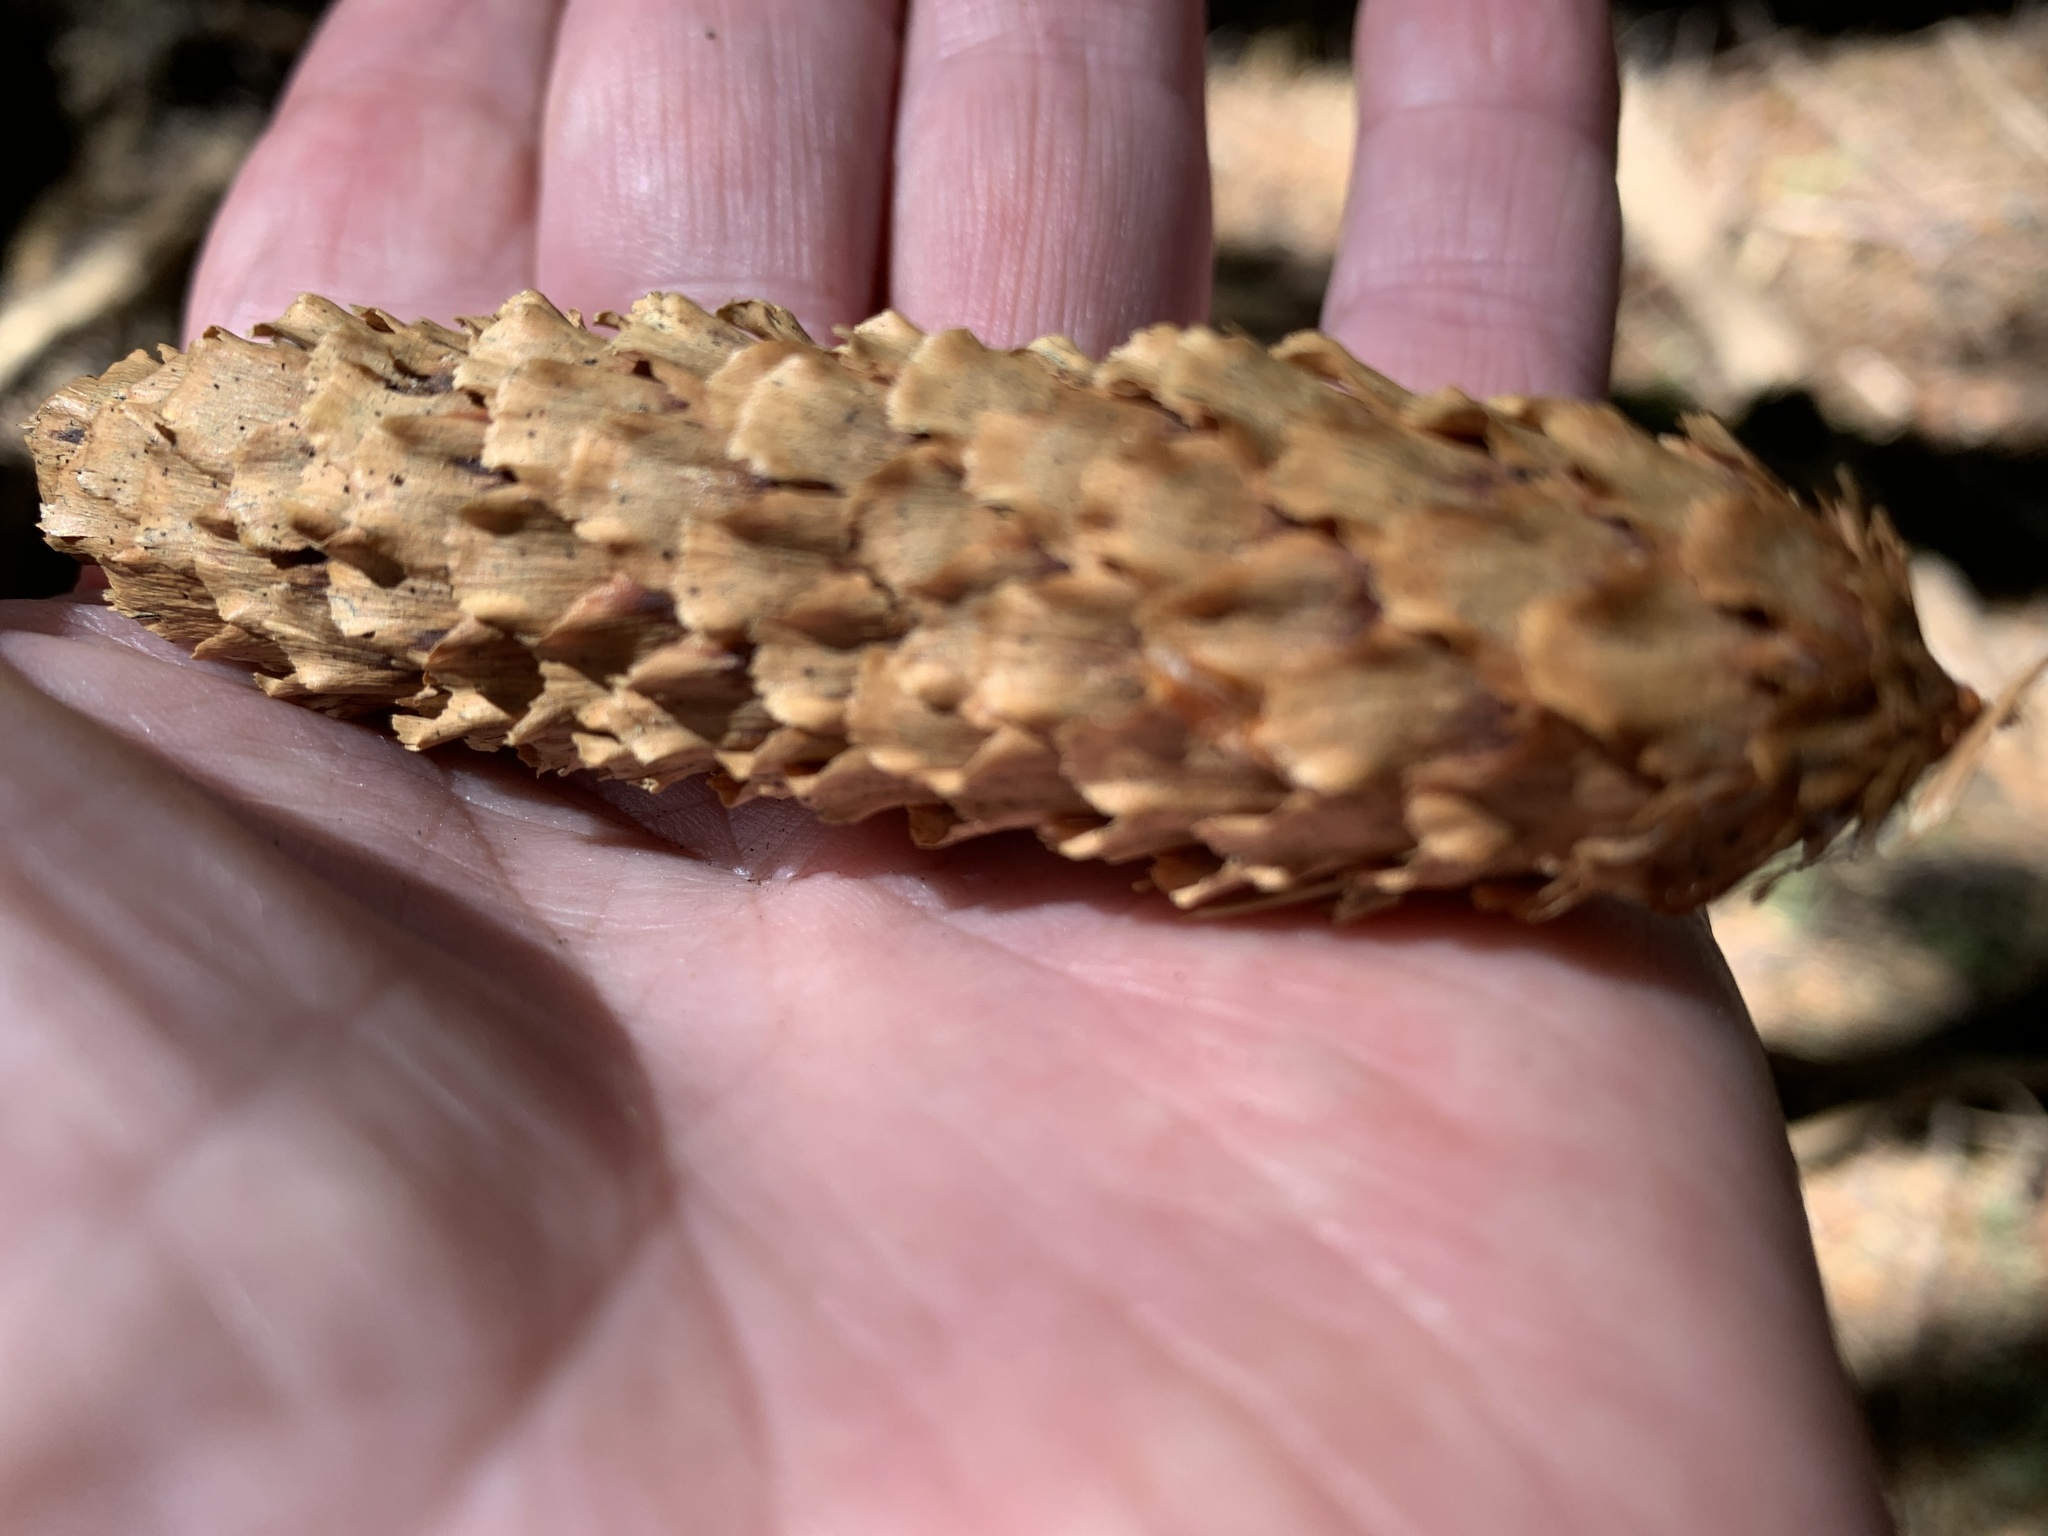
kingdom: Plantae
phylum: Tracheophyta
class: Pinopsida
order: Pinales
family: Pinaceae
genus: Picea
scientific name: Picea sitchensis
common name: Sitka spruce
